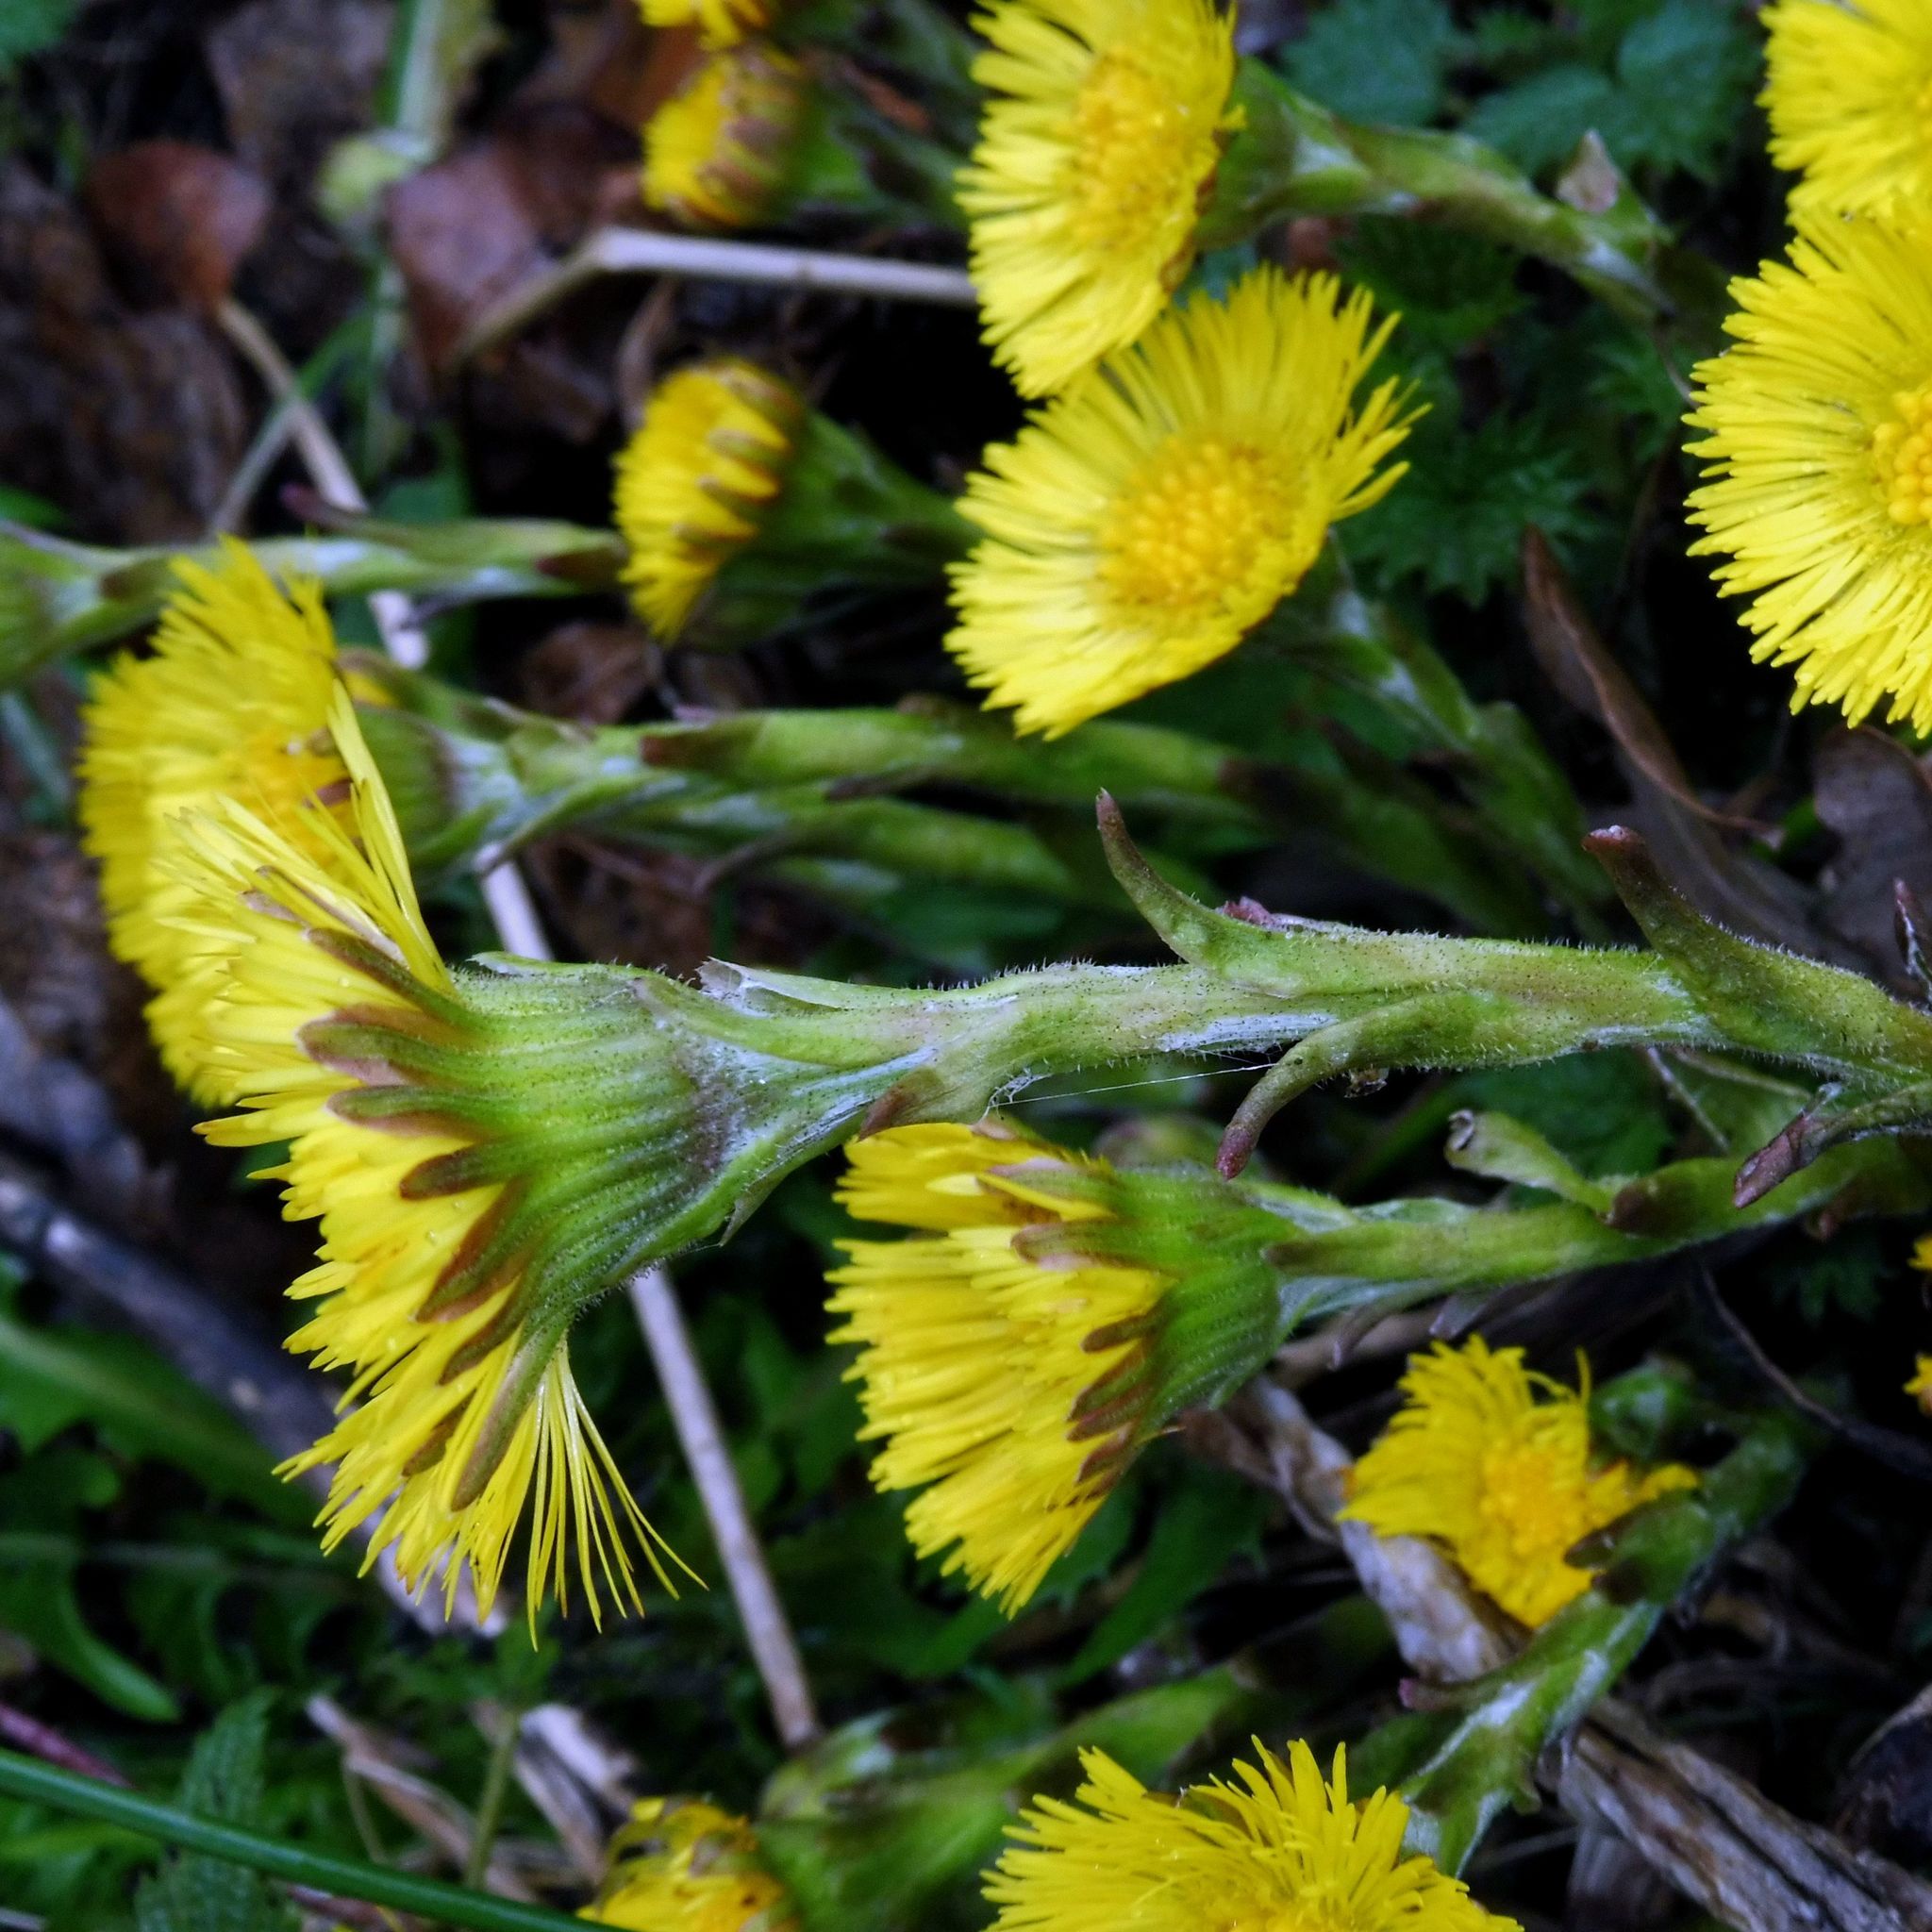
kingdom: Plantae
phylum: Tracheophyta
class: Magnoliopsida
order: Asterales
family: Asteraceae
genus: Tussilago
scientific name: Tussilago farfara
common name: Coltsfoot
